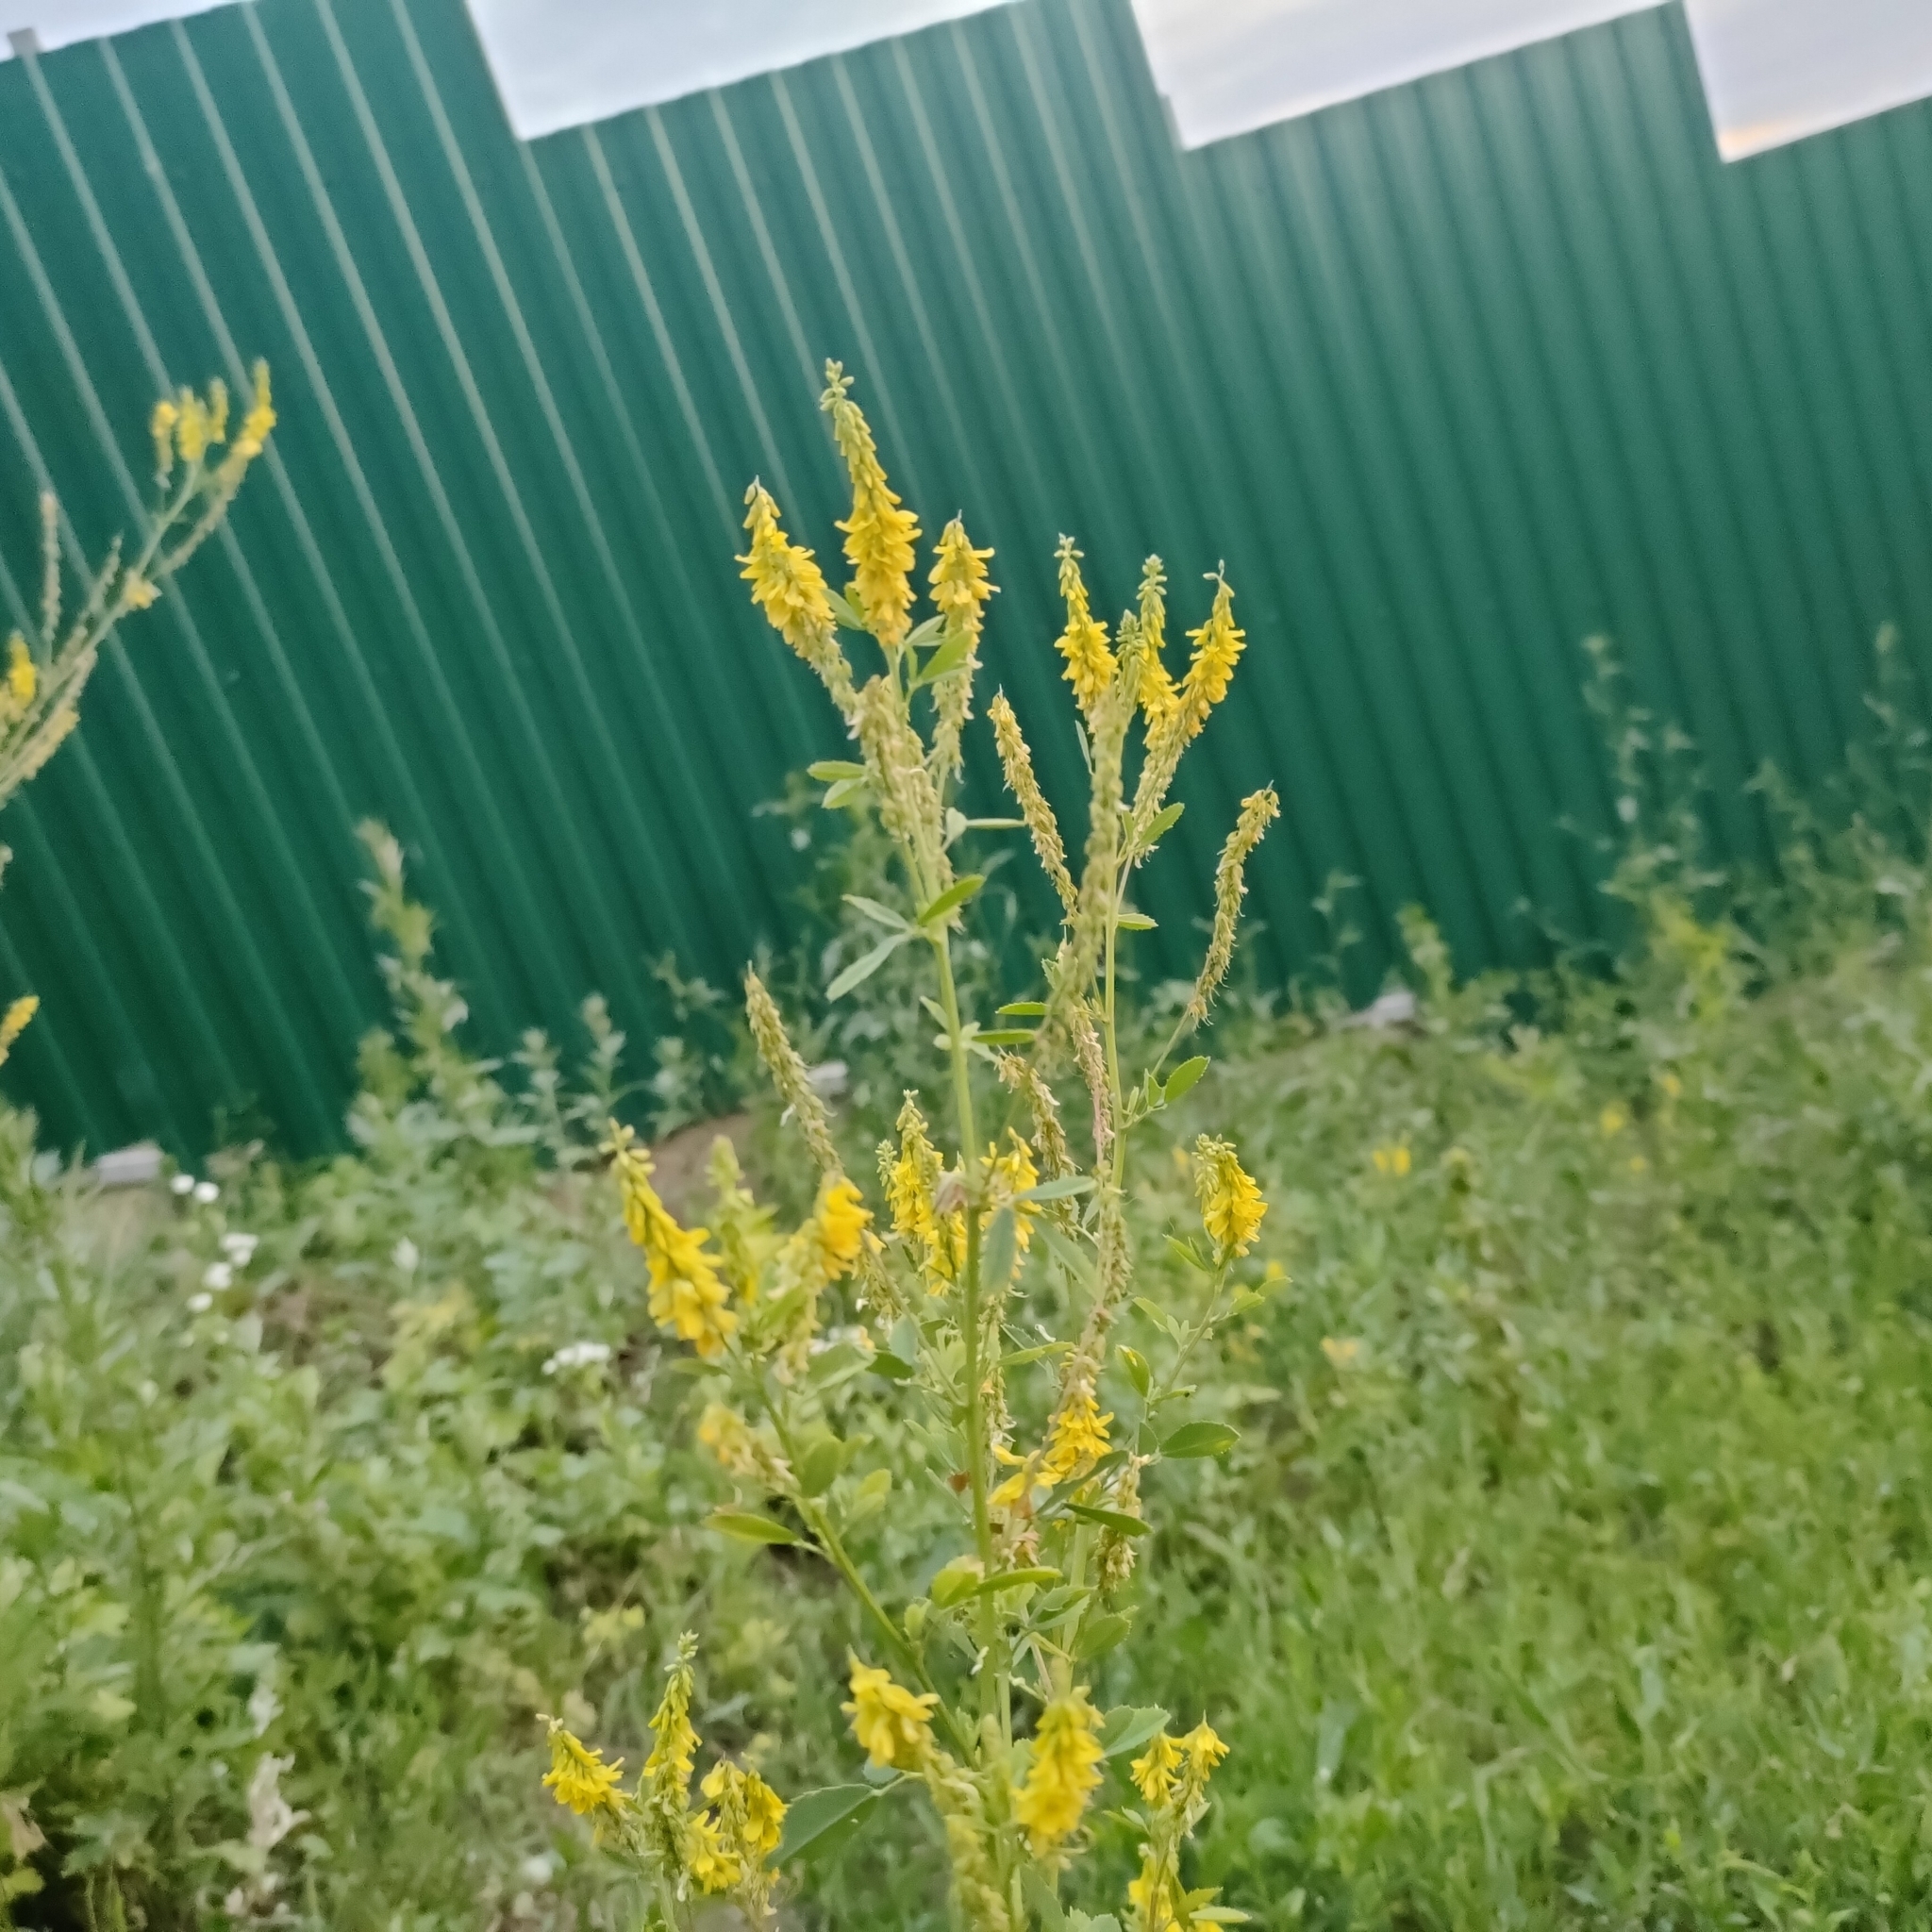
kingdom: Plantae
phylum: Tracheophyta
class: Magnoliopsida
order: Fabales
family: Fabaceae
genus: Melilotus
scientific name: Melilotus officinalis
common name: Sweetclover
